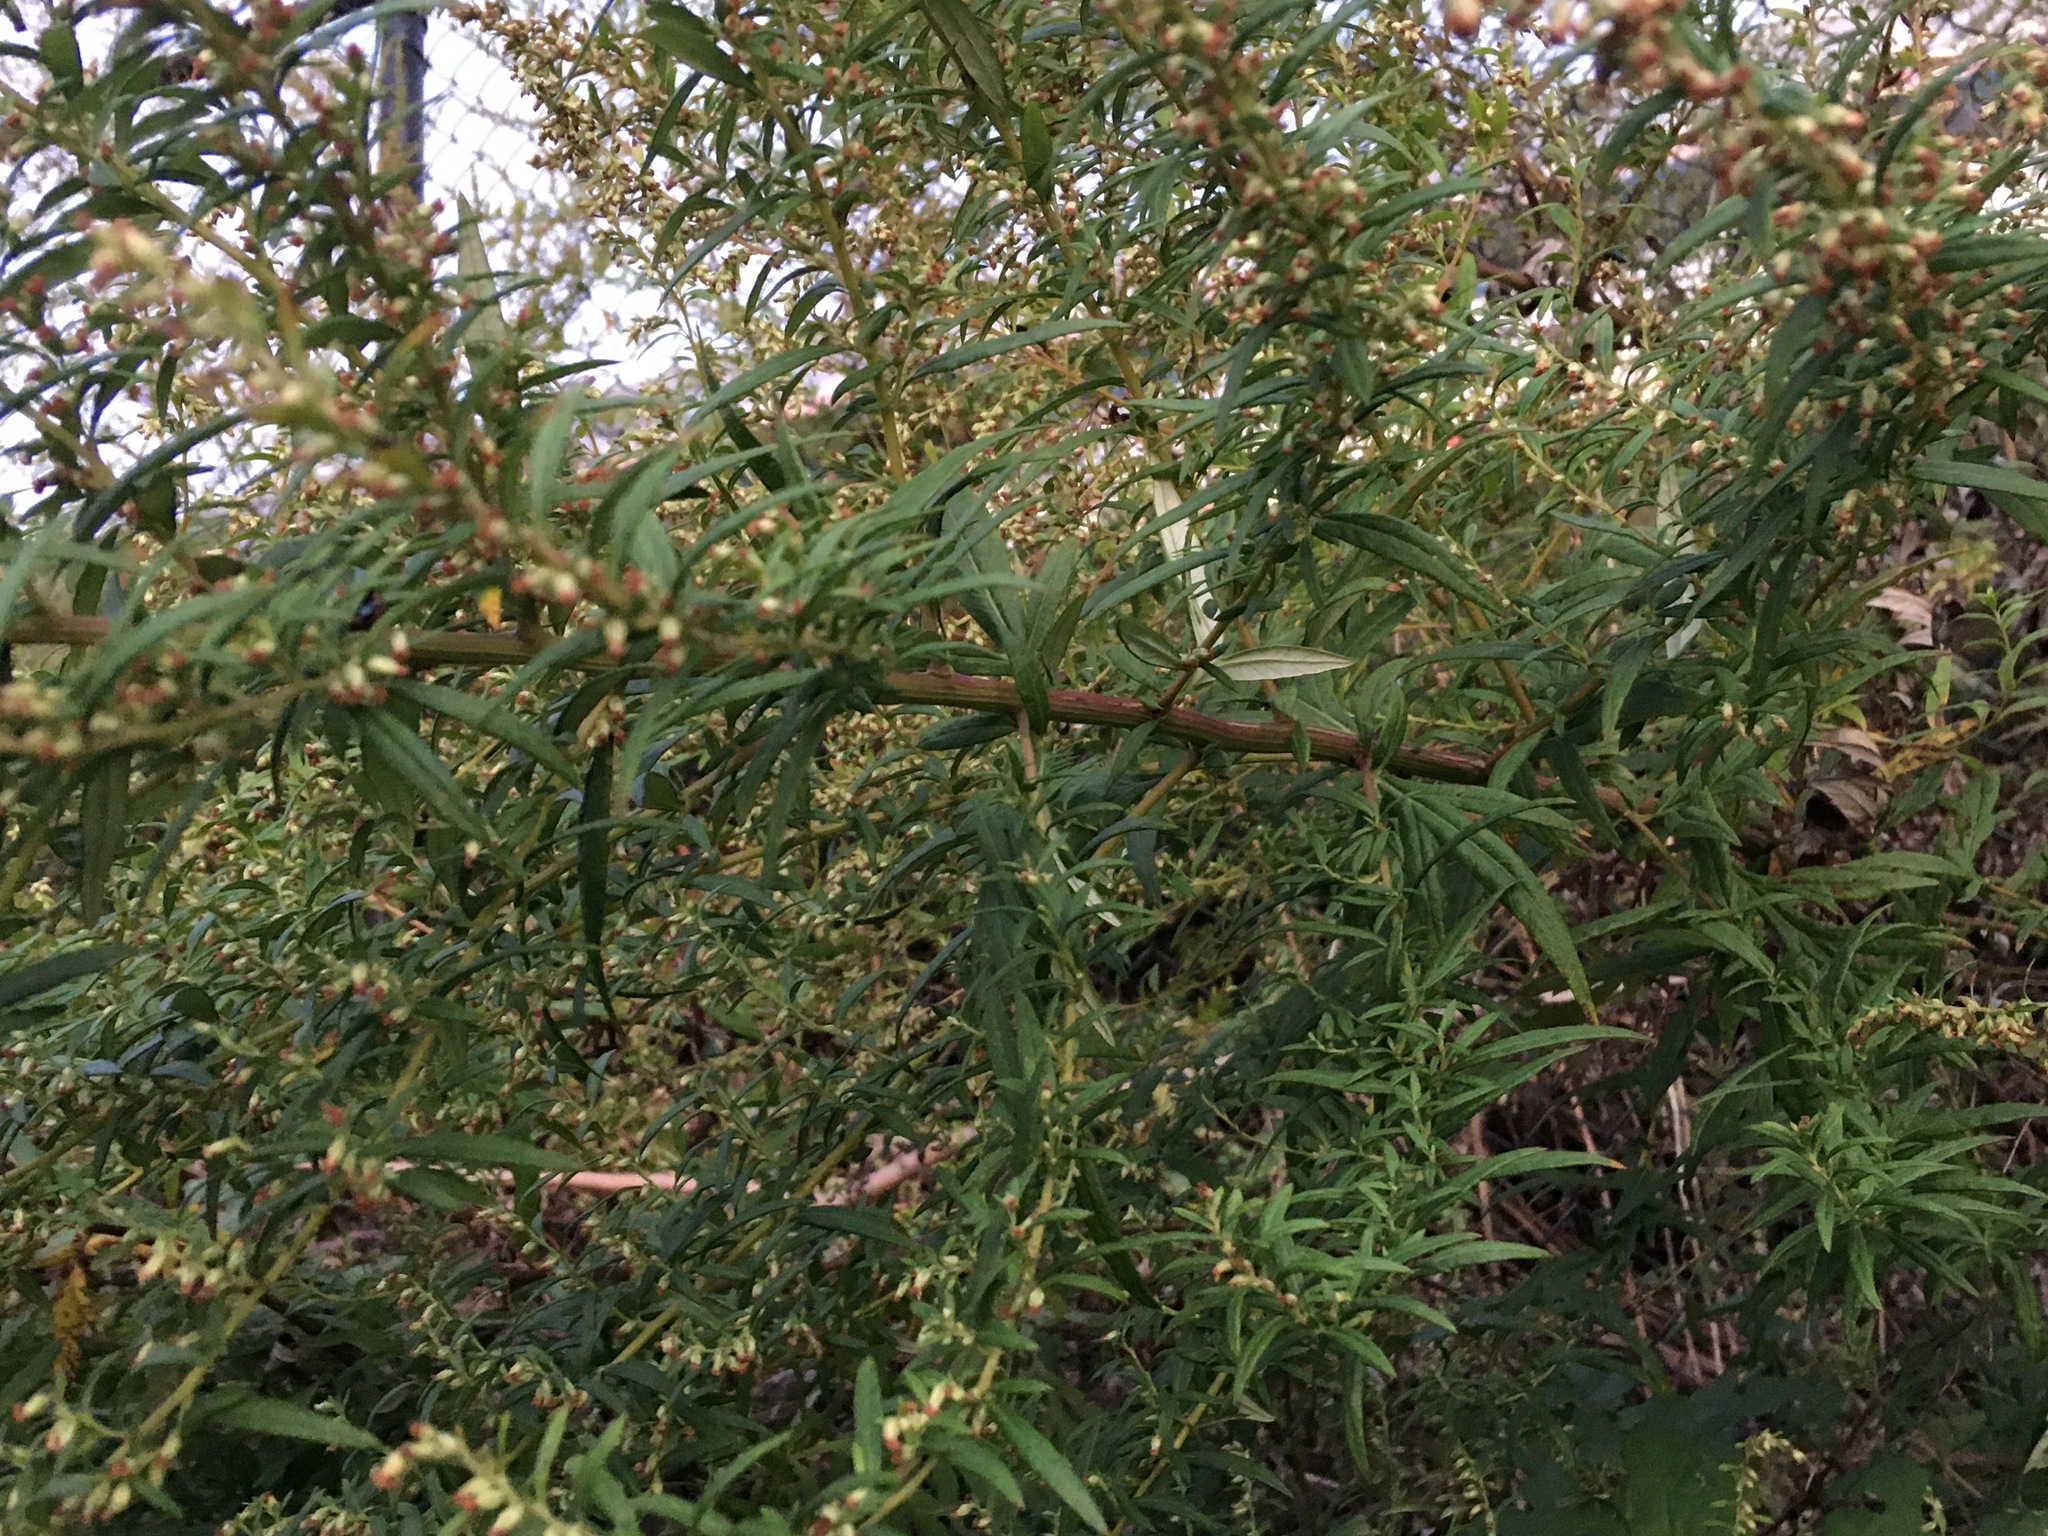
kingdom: Plantae
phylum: Tracheophyta
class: Magnoliopsida
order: Asterales
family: Asteraceae
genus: Artemisia
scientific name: Artemisia vulgaris
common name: Mugwort
